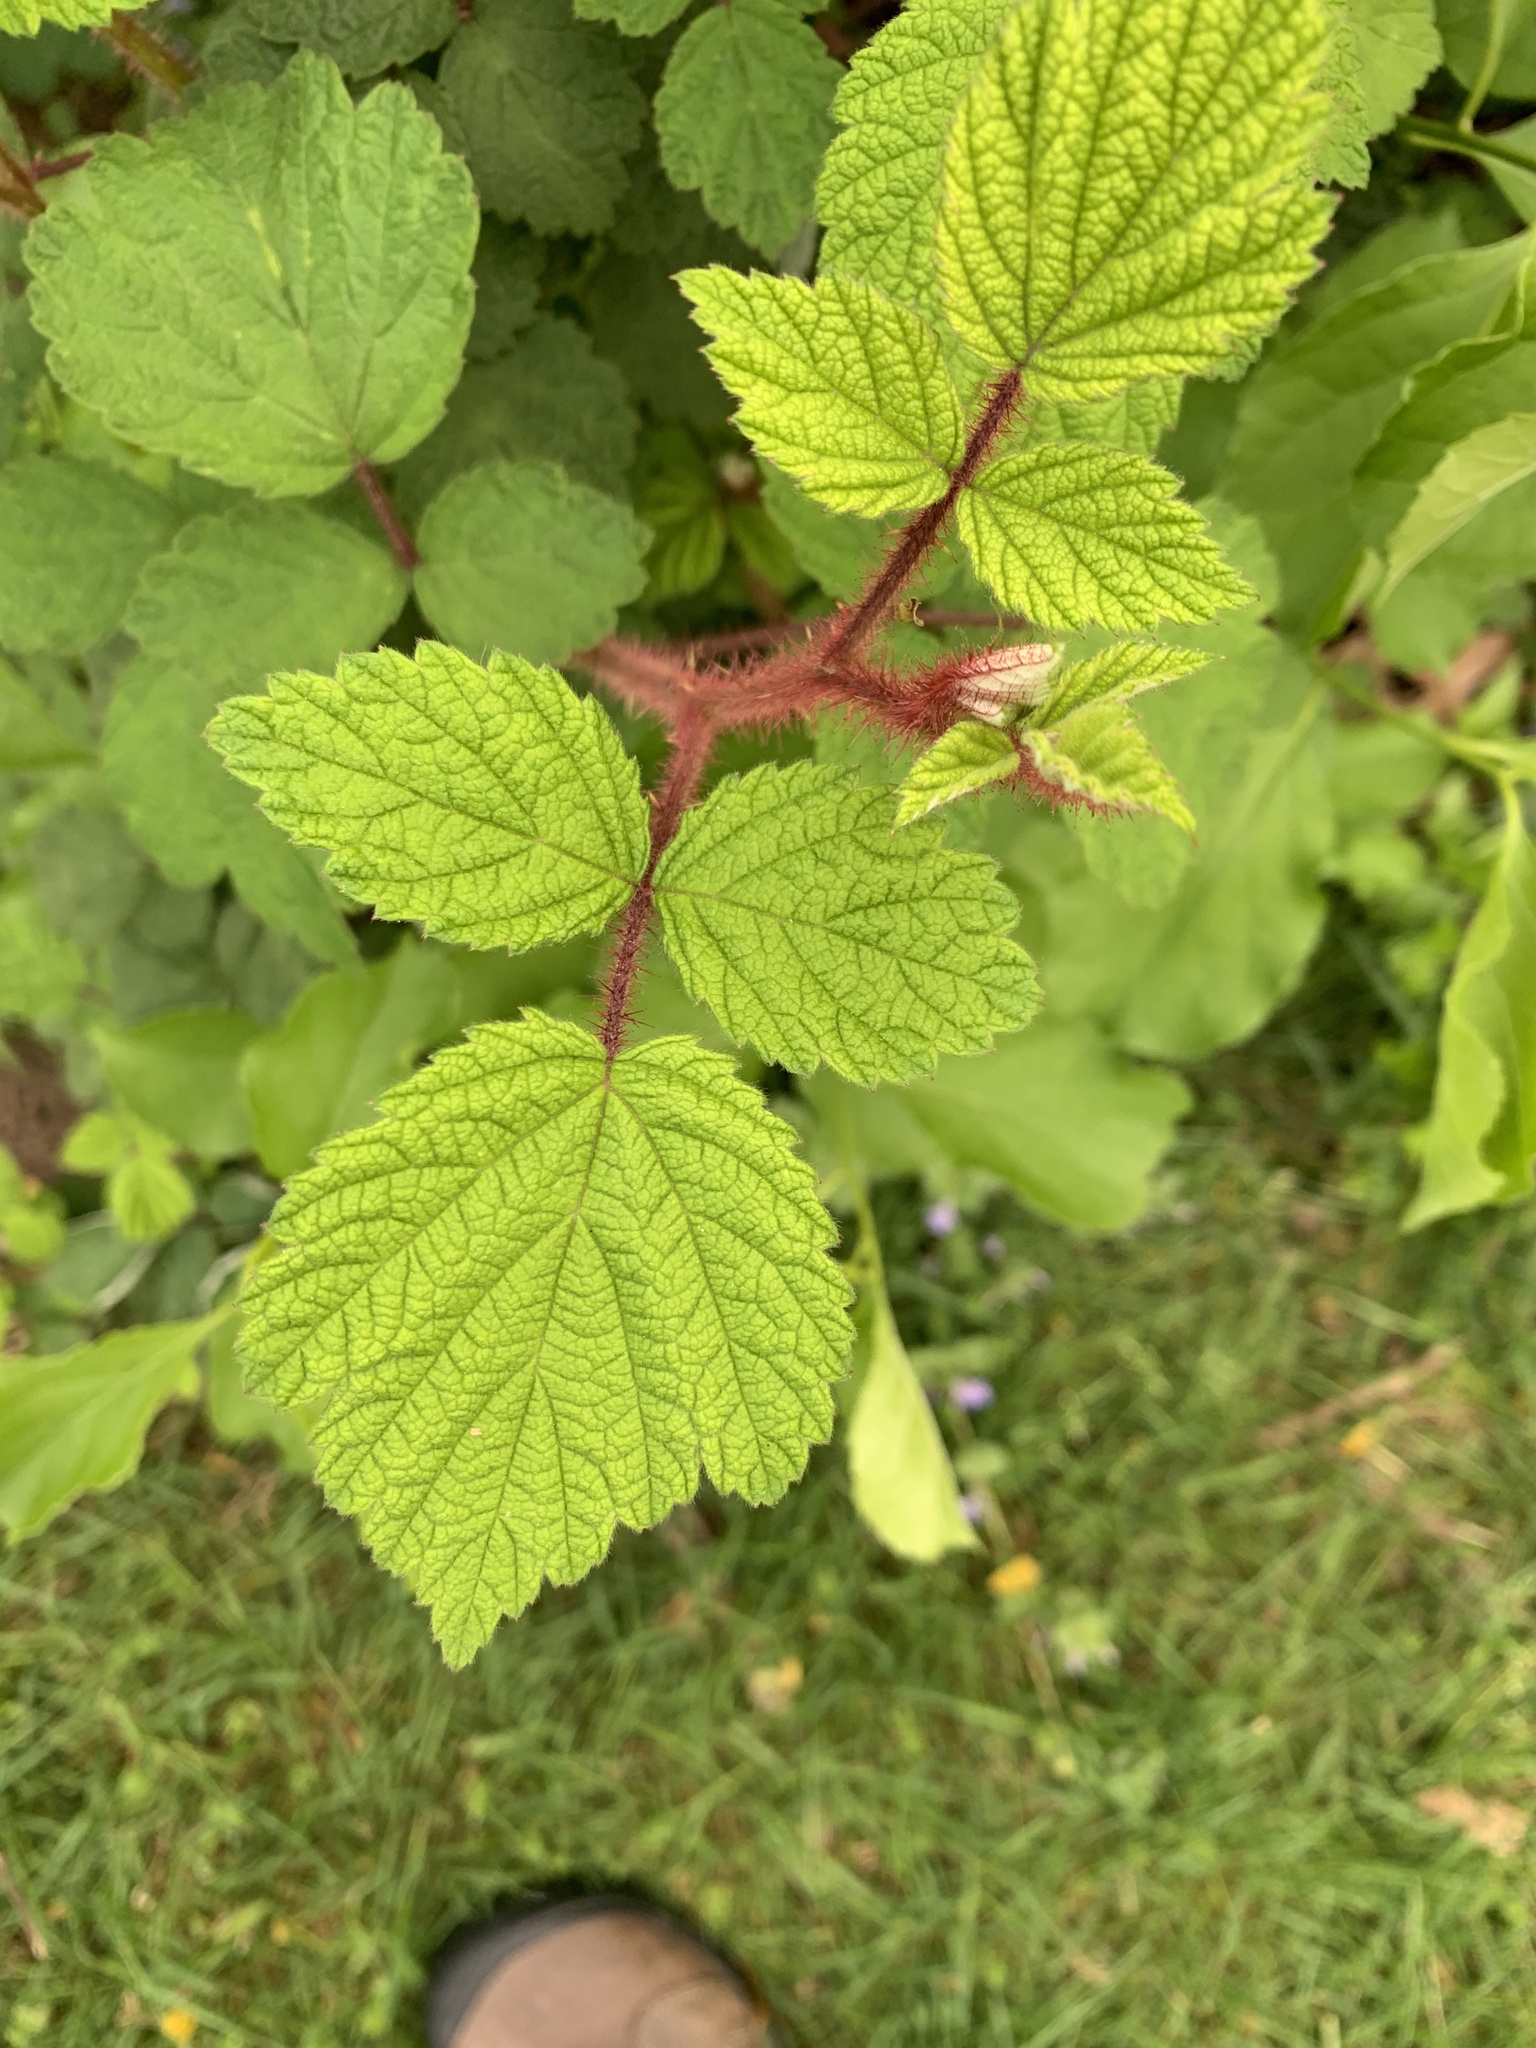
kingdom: Plantae
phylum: Tracheophyta
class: Magnoliopsida
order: Rosales
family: Rosaceae
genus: Rubus
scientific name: Rubus phoenicolasius
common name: Japanese wineberry
